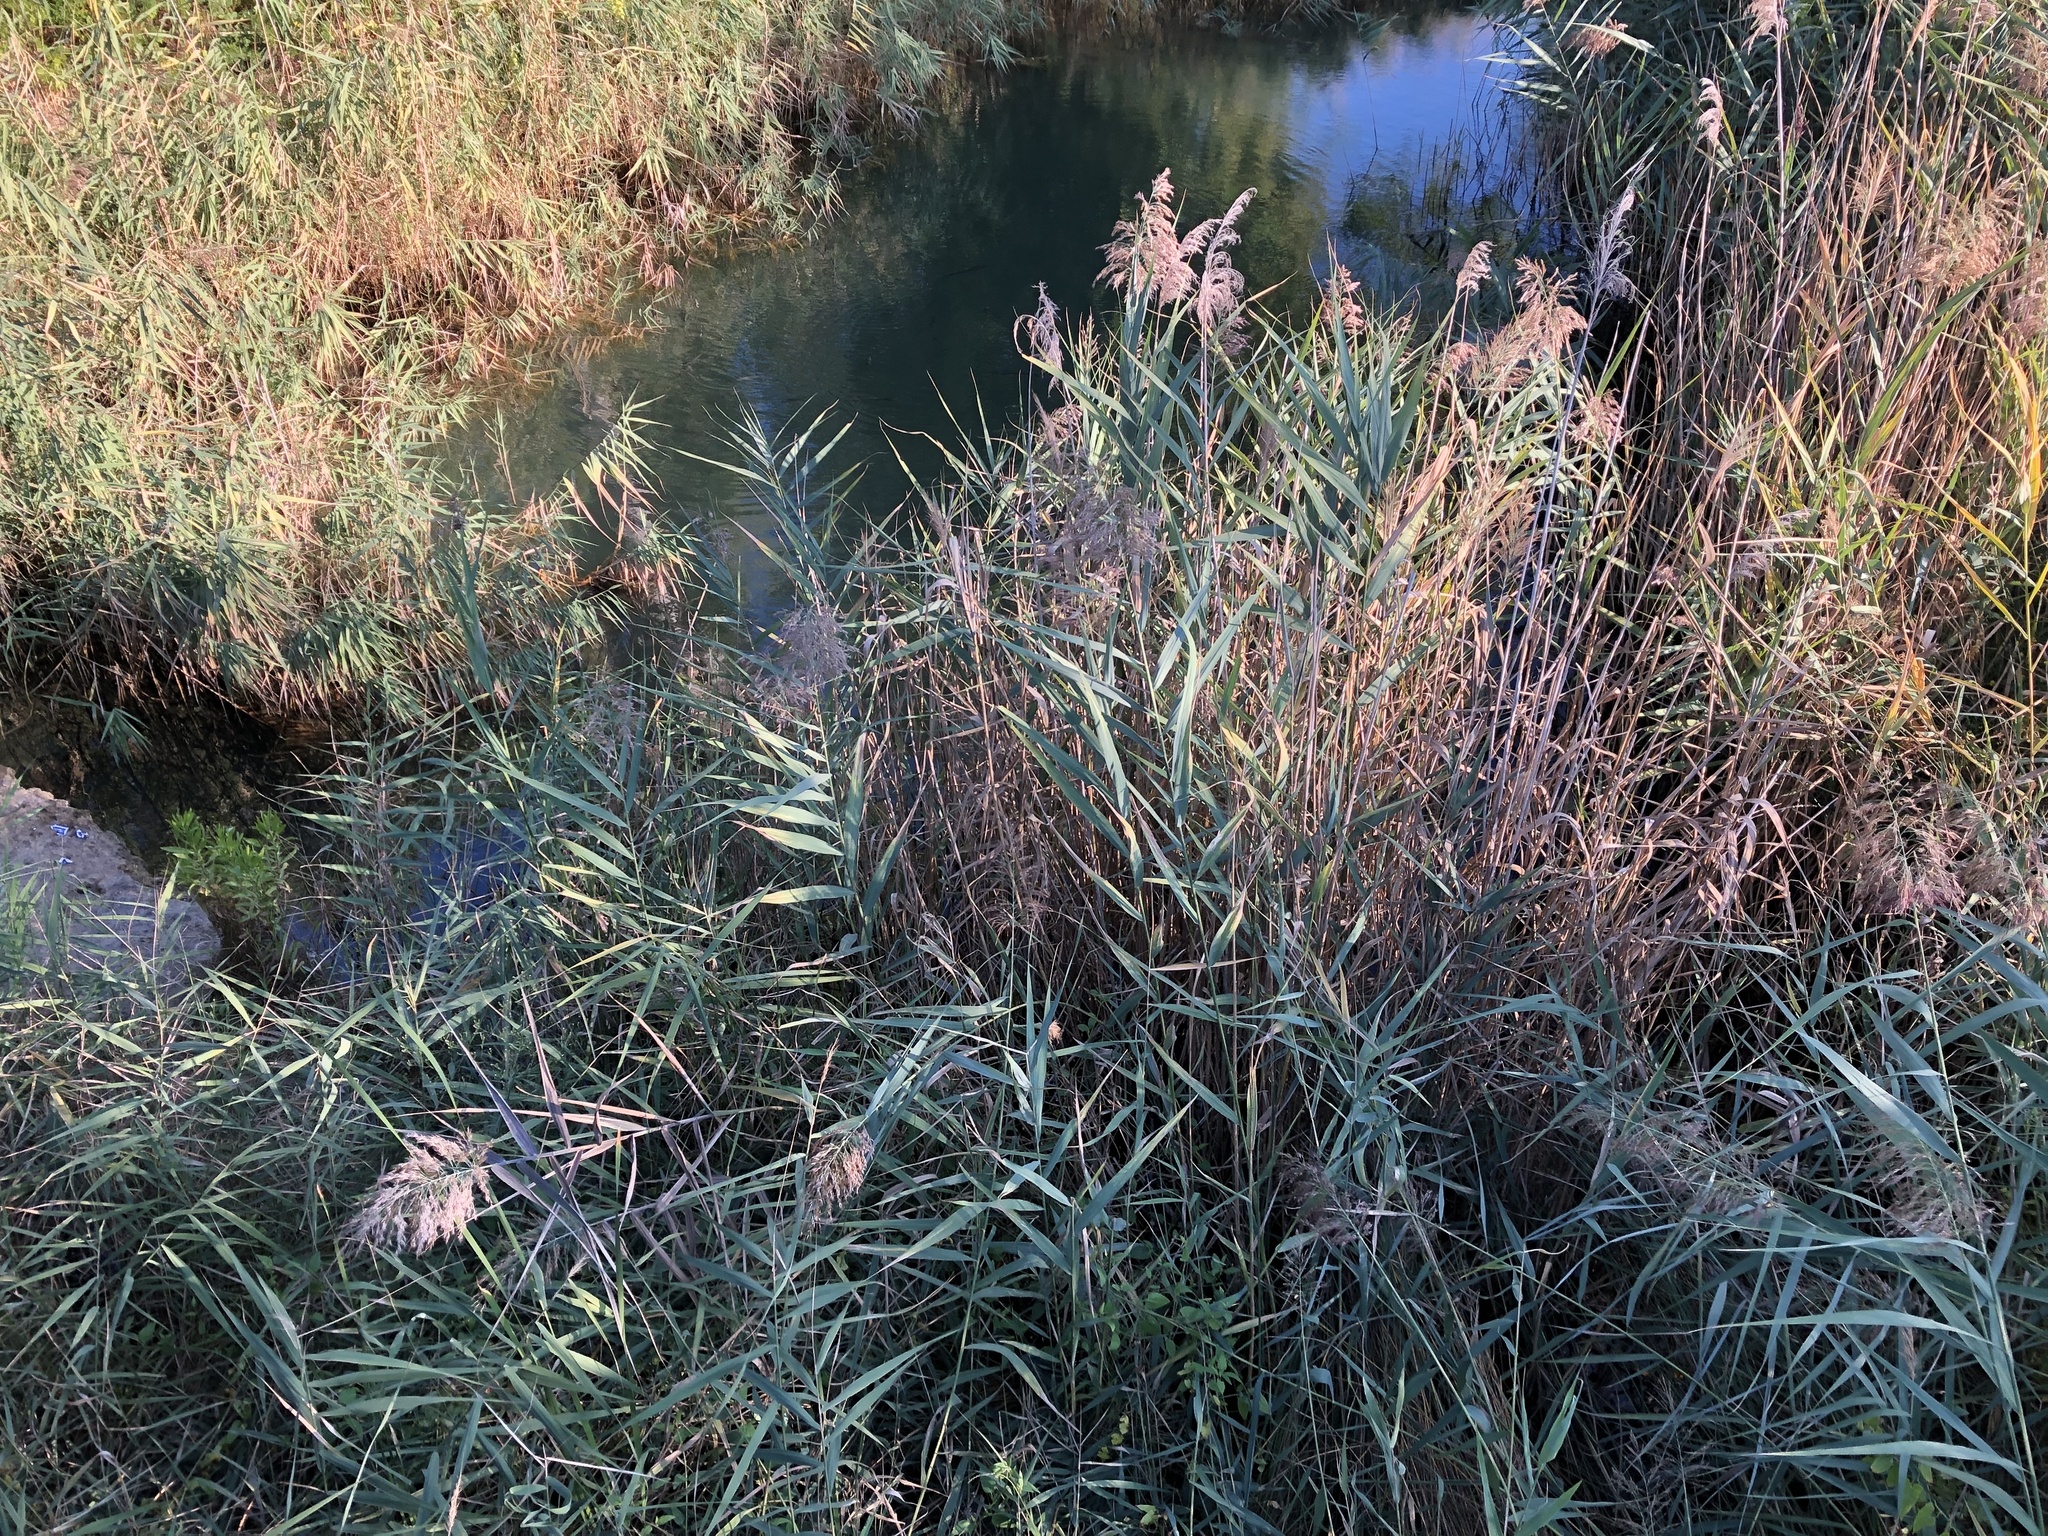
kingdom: Plantae
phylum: Tracheophyta
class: Liliopsida
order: Poales
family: Poaceae
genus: Phragmites
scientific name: Phragmites australis
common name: Common reed
